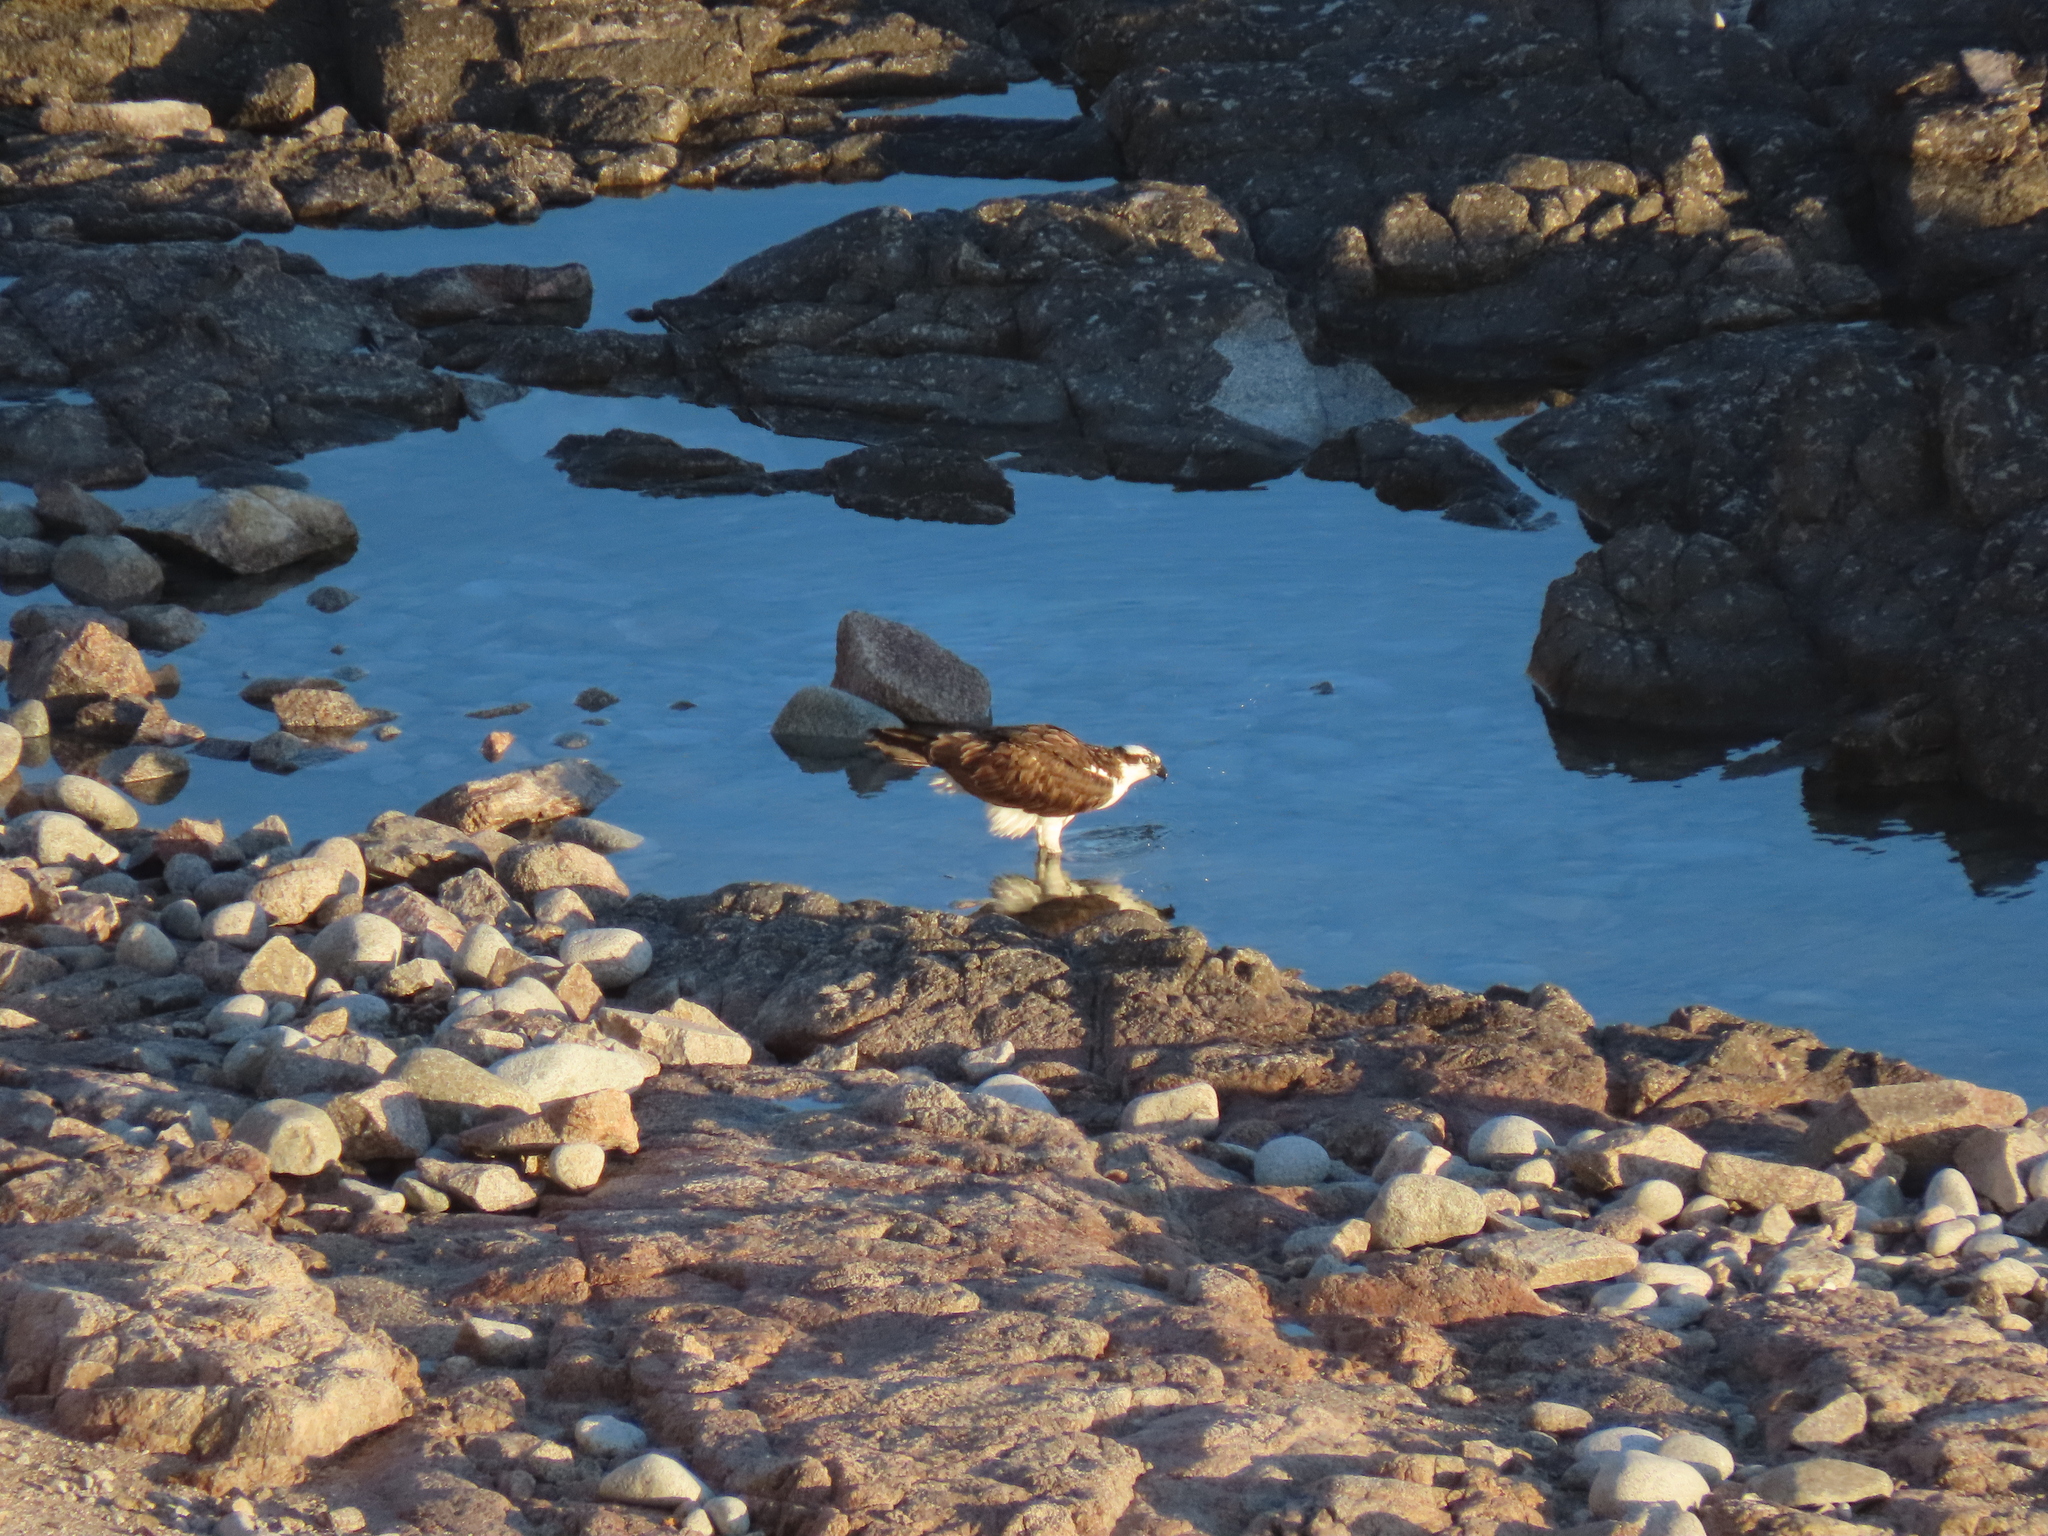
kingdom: Animalia
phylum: Chordata
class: Aves
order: Accipitriformes
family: Pandionidae
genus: Pandion
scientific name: Pandion haliaetus
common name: Osprey
